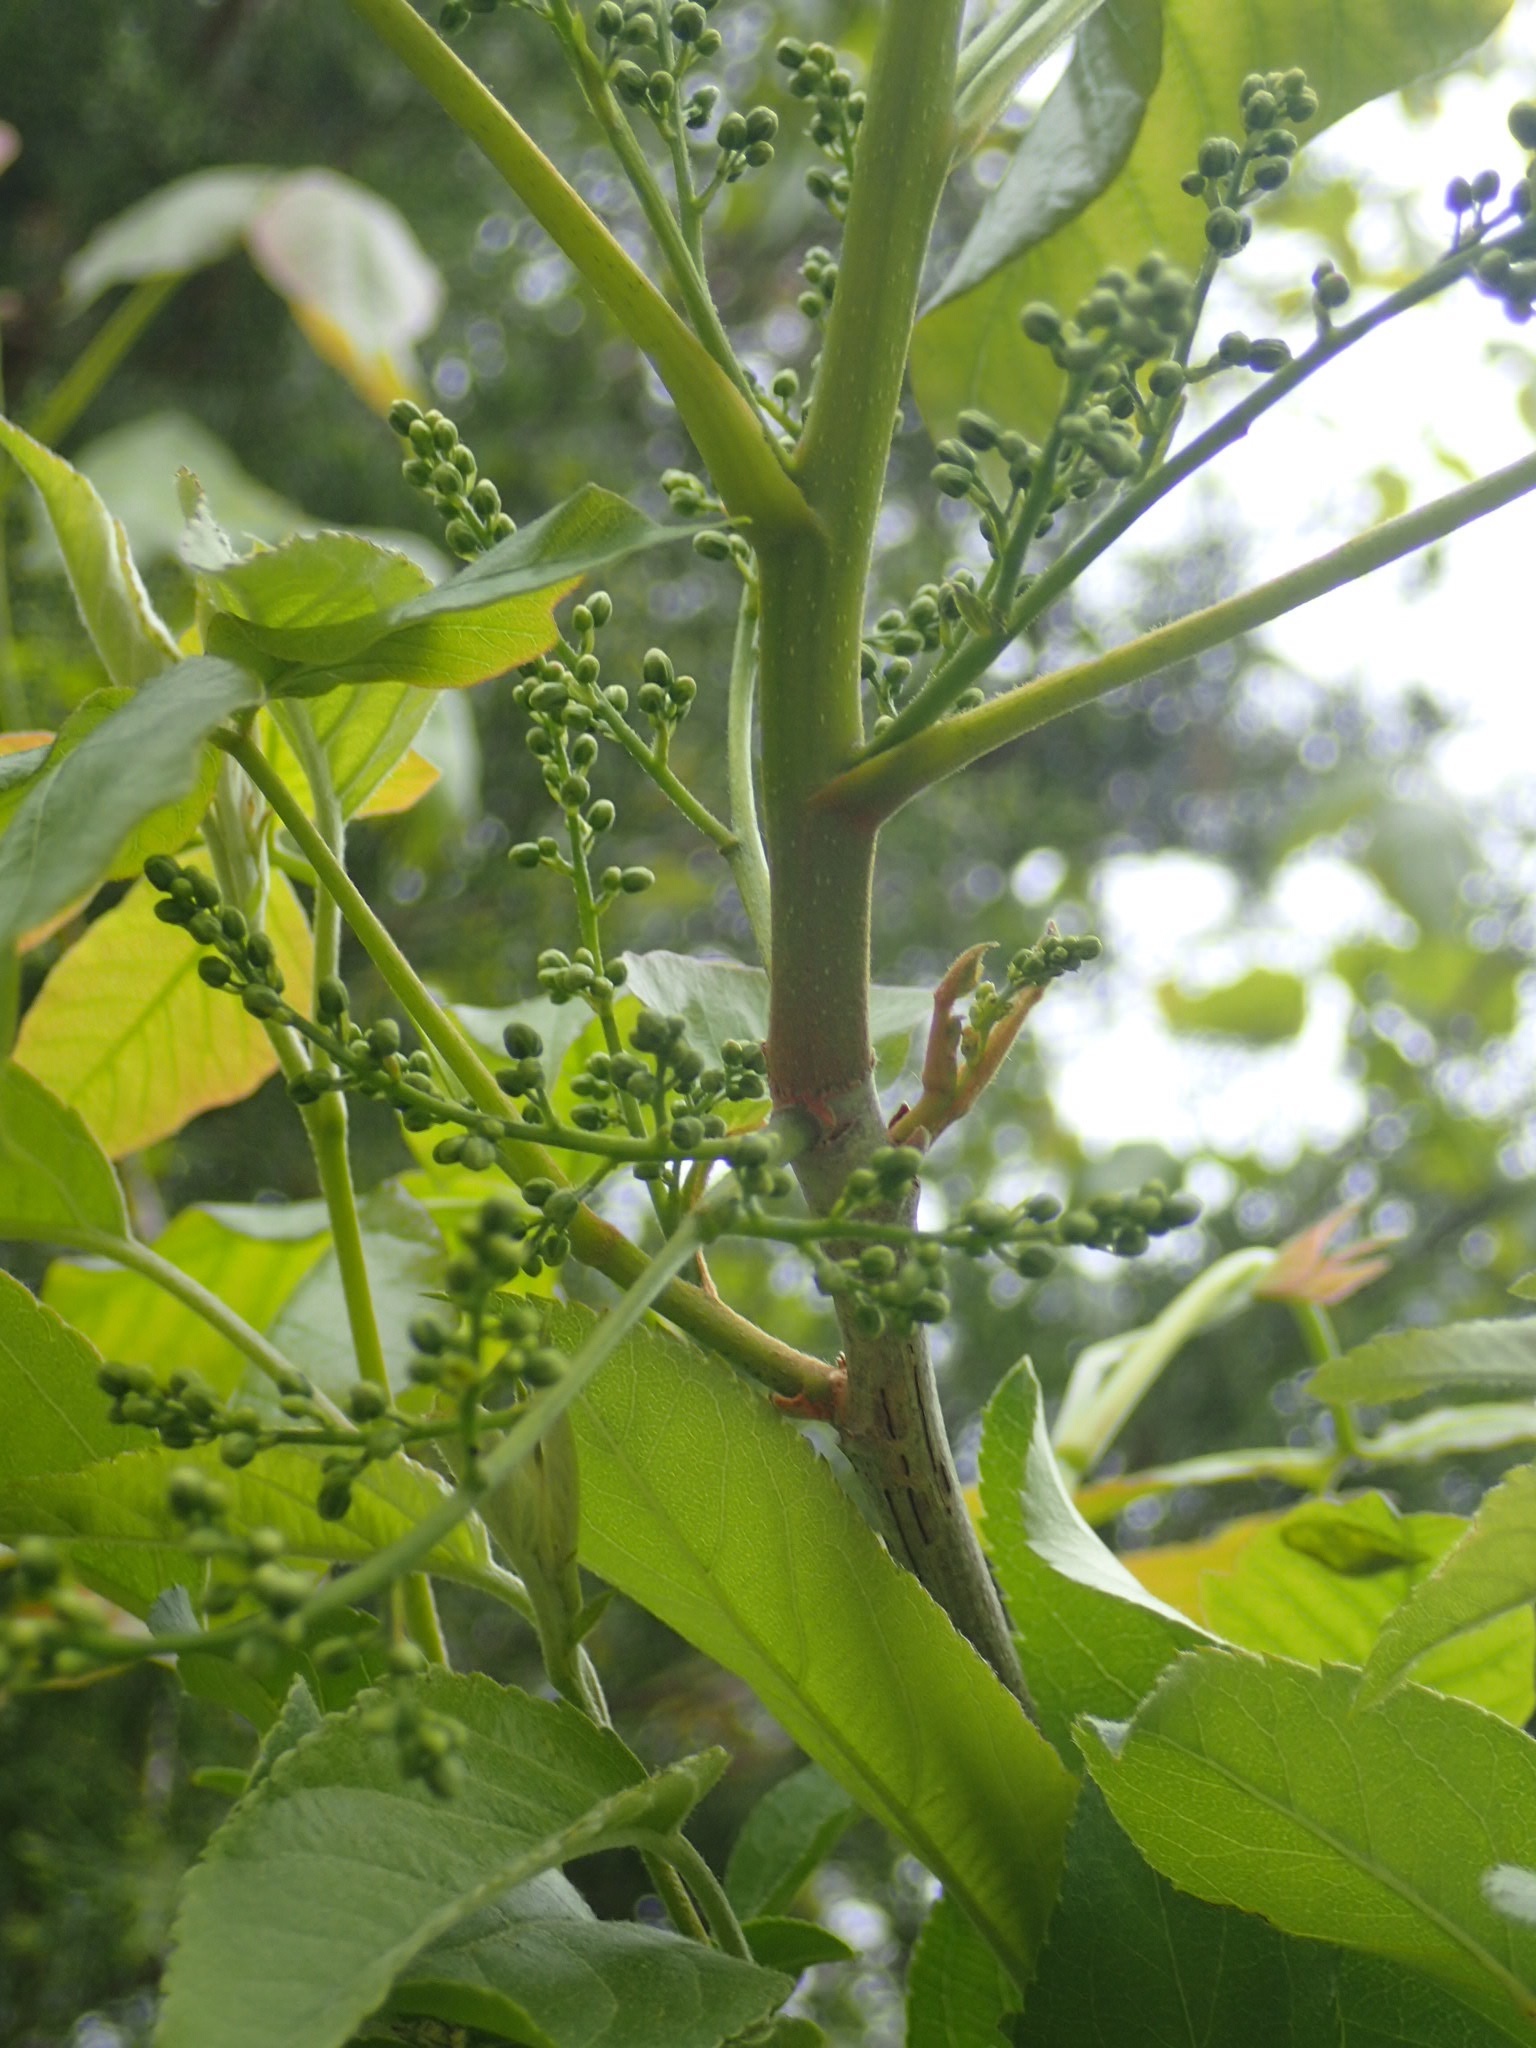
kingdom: Plantae
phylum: Tracheophyta
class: Magnoliopsida
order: Sapindales
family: Anacardiaceae
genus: Toxicodendron
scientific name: Toxicodendron radicans
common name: Poison ivy
